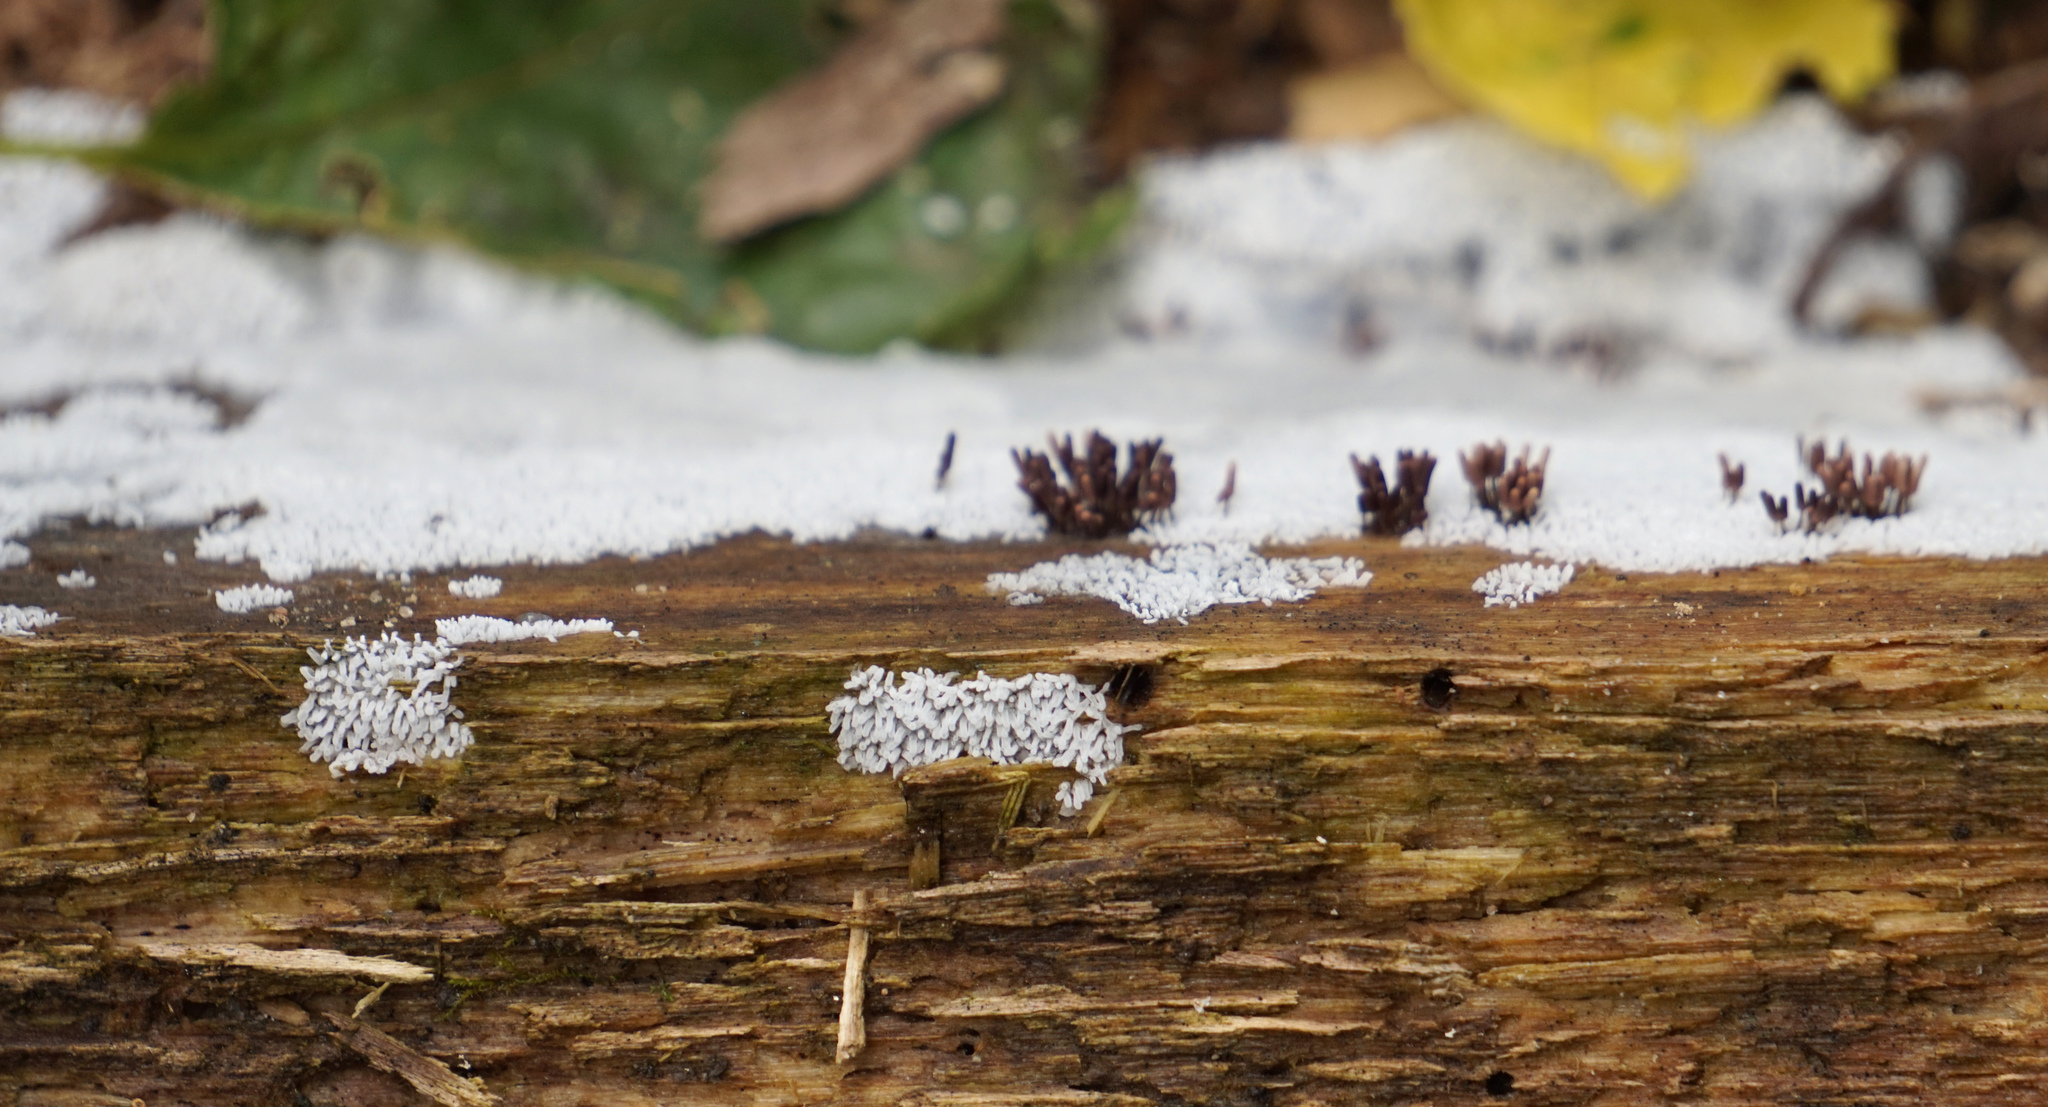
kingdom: Protozoa
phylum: Mycetozoa
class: Protosteliomycetes
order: Ceratiomyxales
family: Ceratiomyxaceae
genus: Ceratiomyxa
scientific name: Ceratiomyxa fruticulosa
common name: Honeycomb coral slime mold
